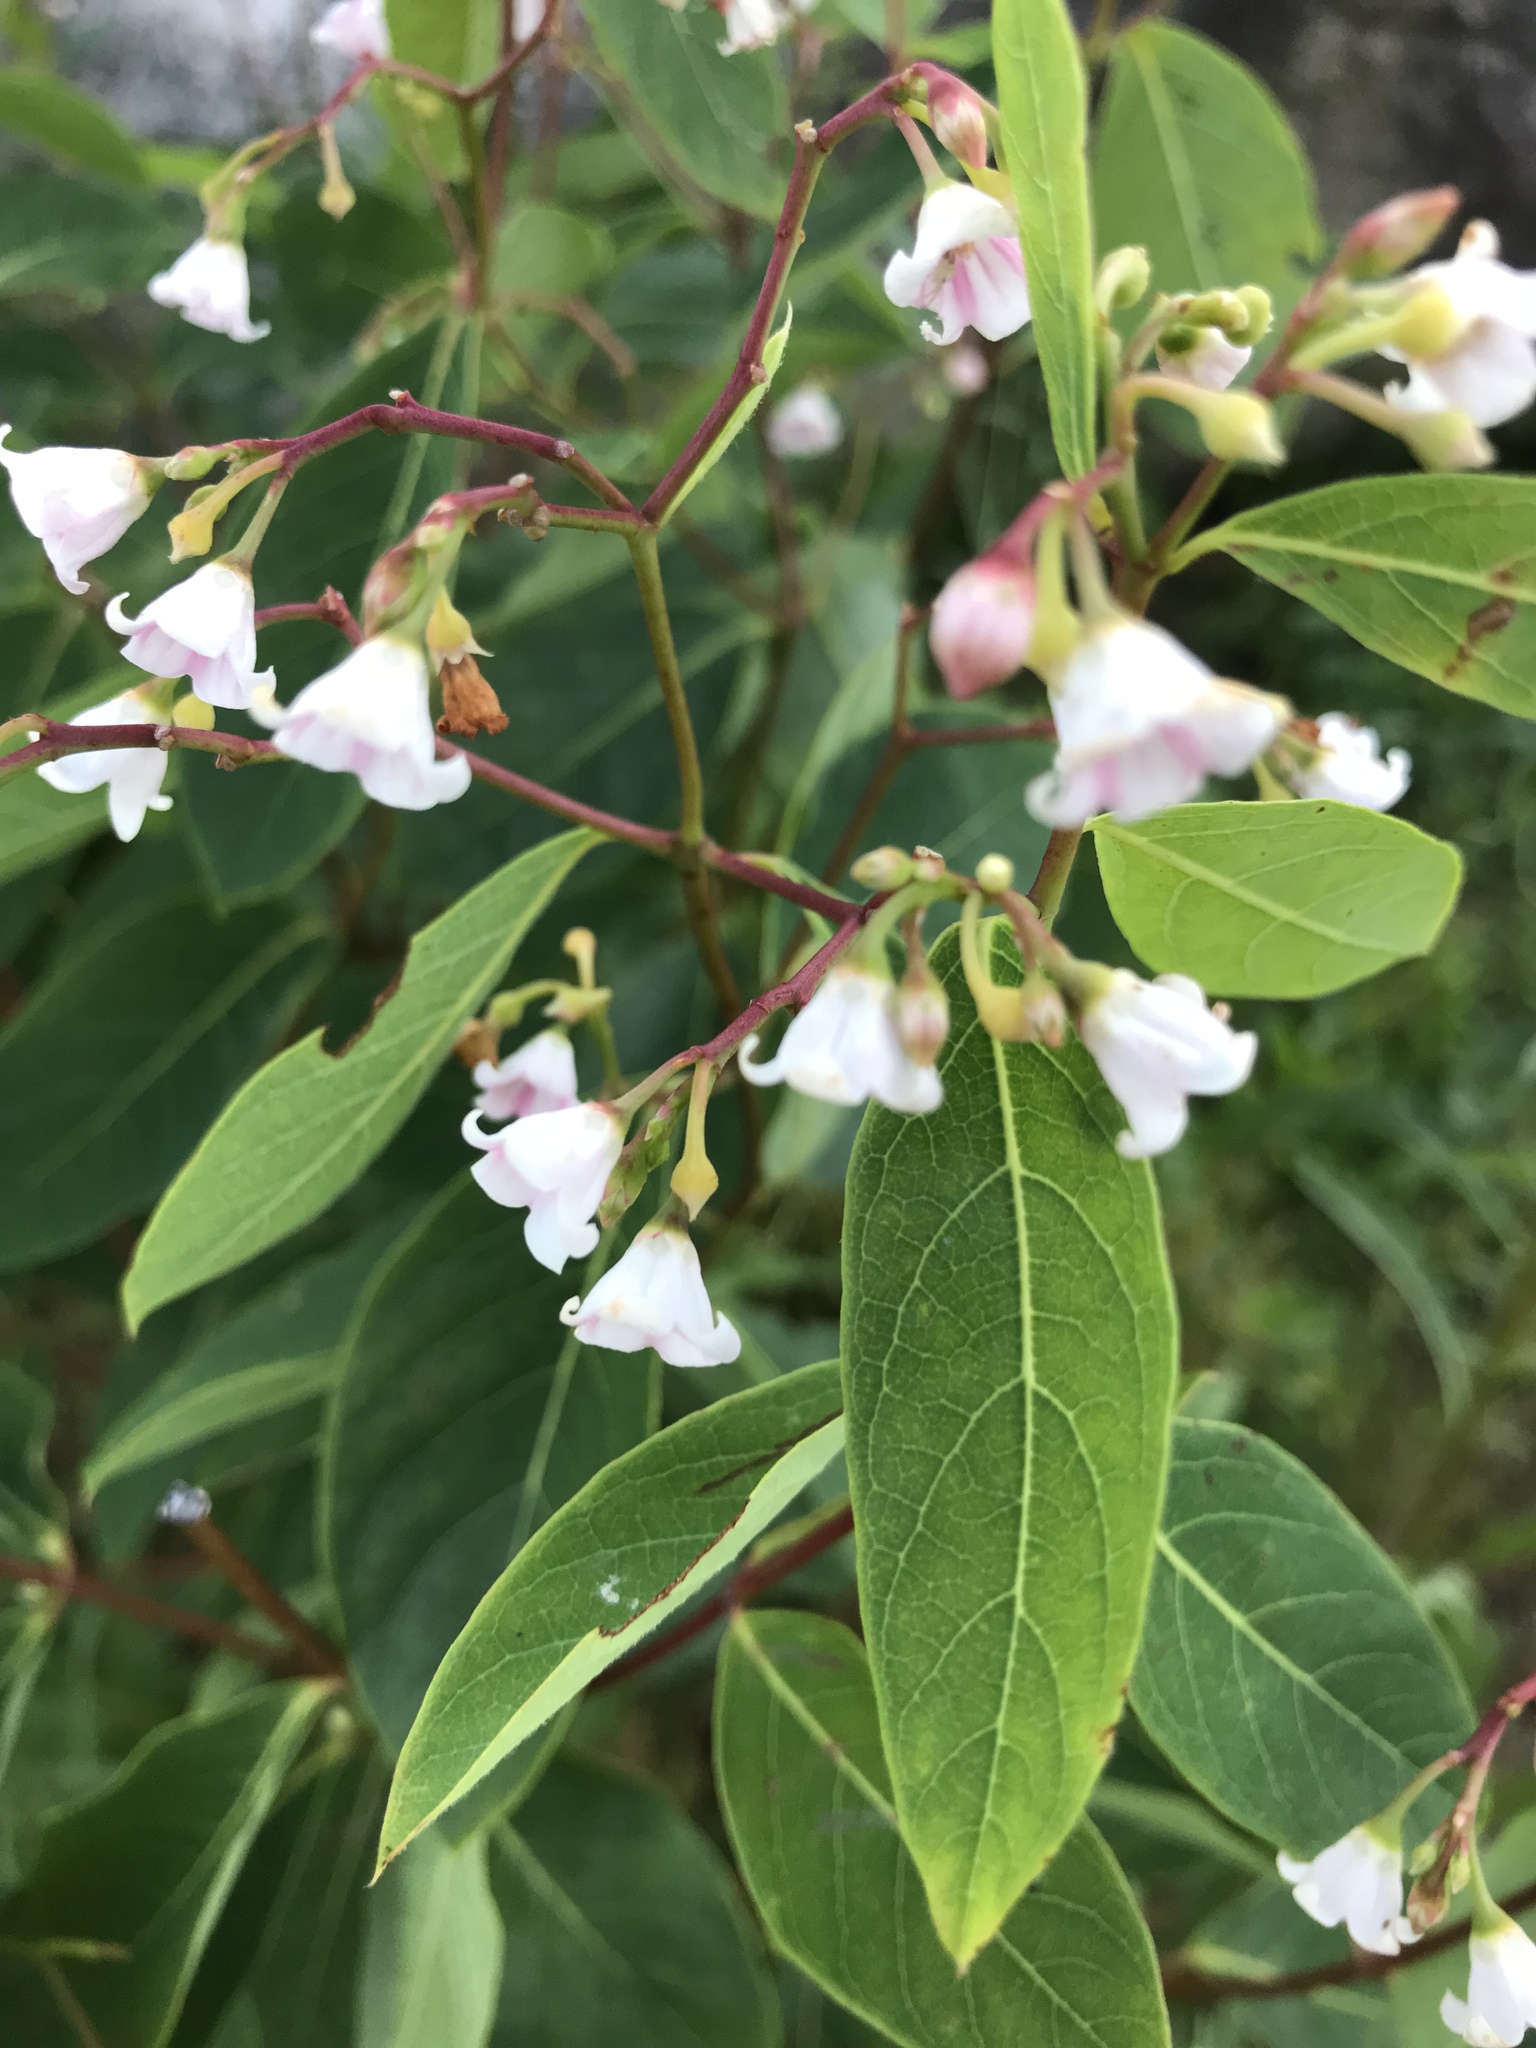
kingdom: Plantae
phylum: Tracheophyta
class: Magnoliopsida
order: Gentianales
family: Apocynaceae
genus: Apocynum
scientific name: Apocynum androsaemifolium
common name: Spreading dogbane
